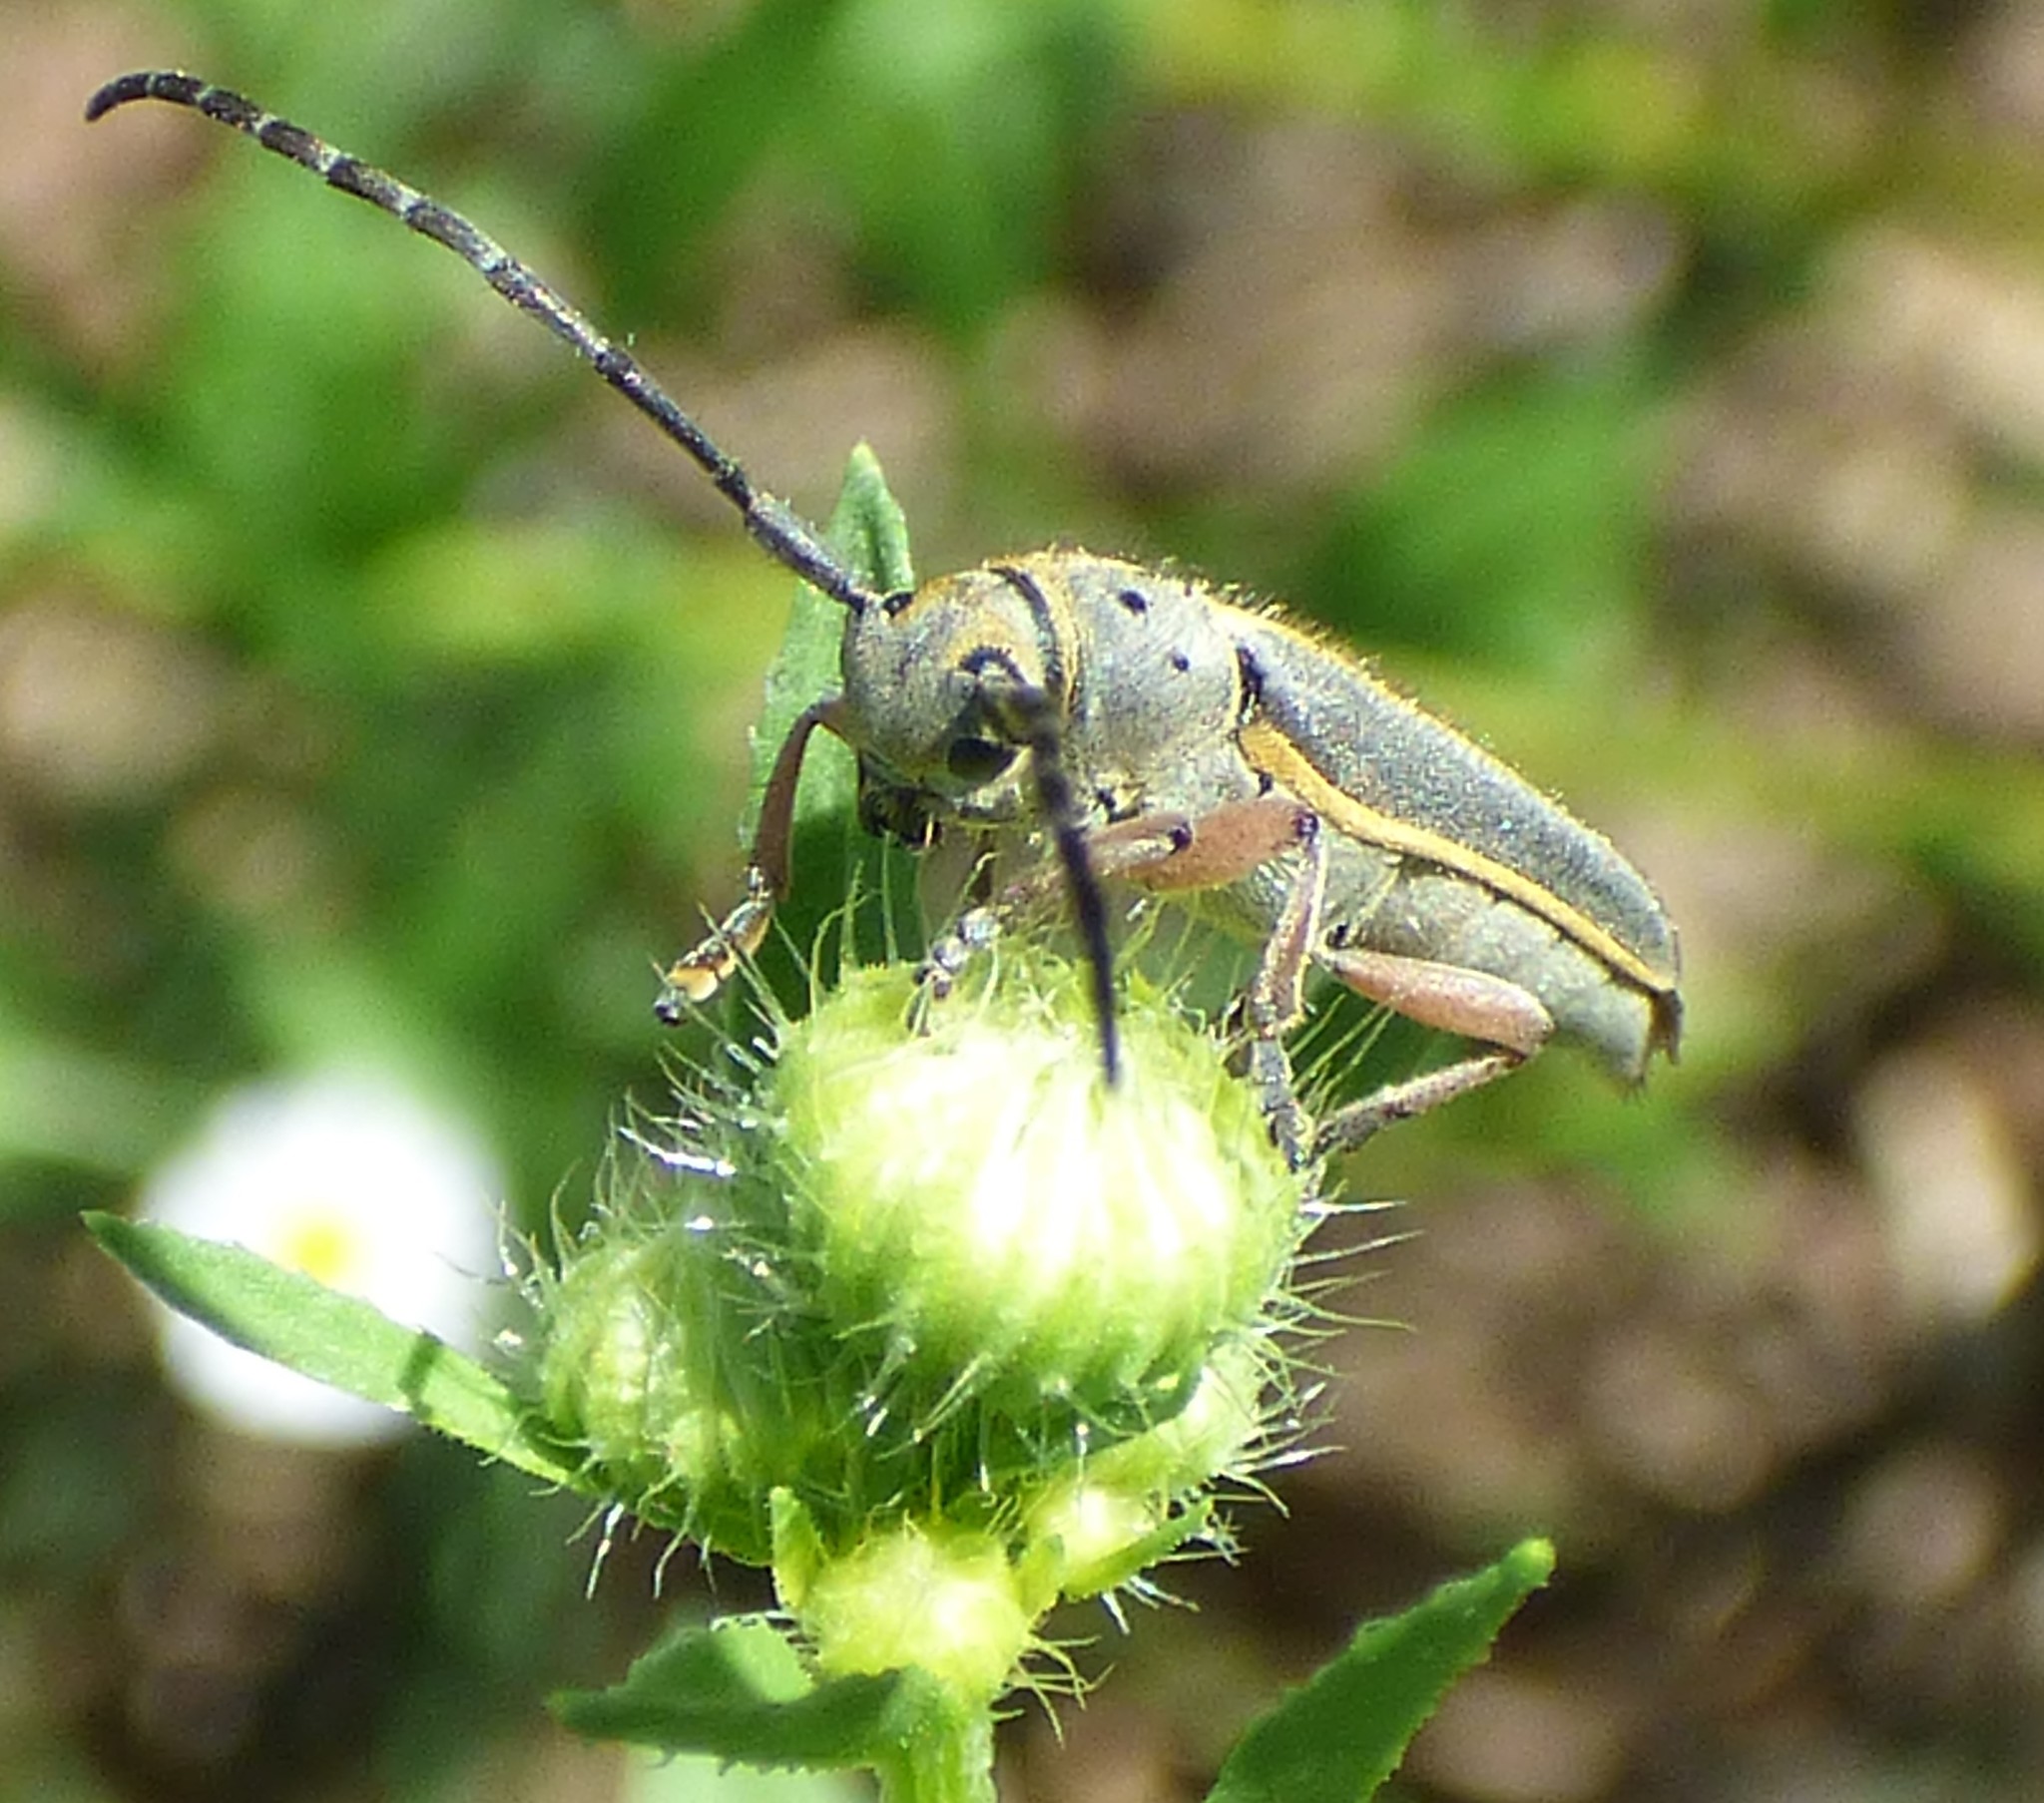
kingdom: Animalia
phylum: Arthropoda
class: Insecta
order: Coleoptera
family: Cerambycidae
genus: Mecas
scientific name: Mecas pergrata
